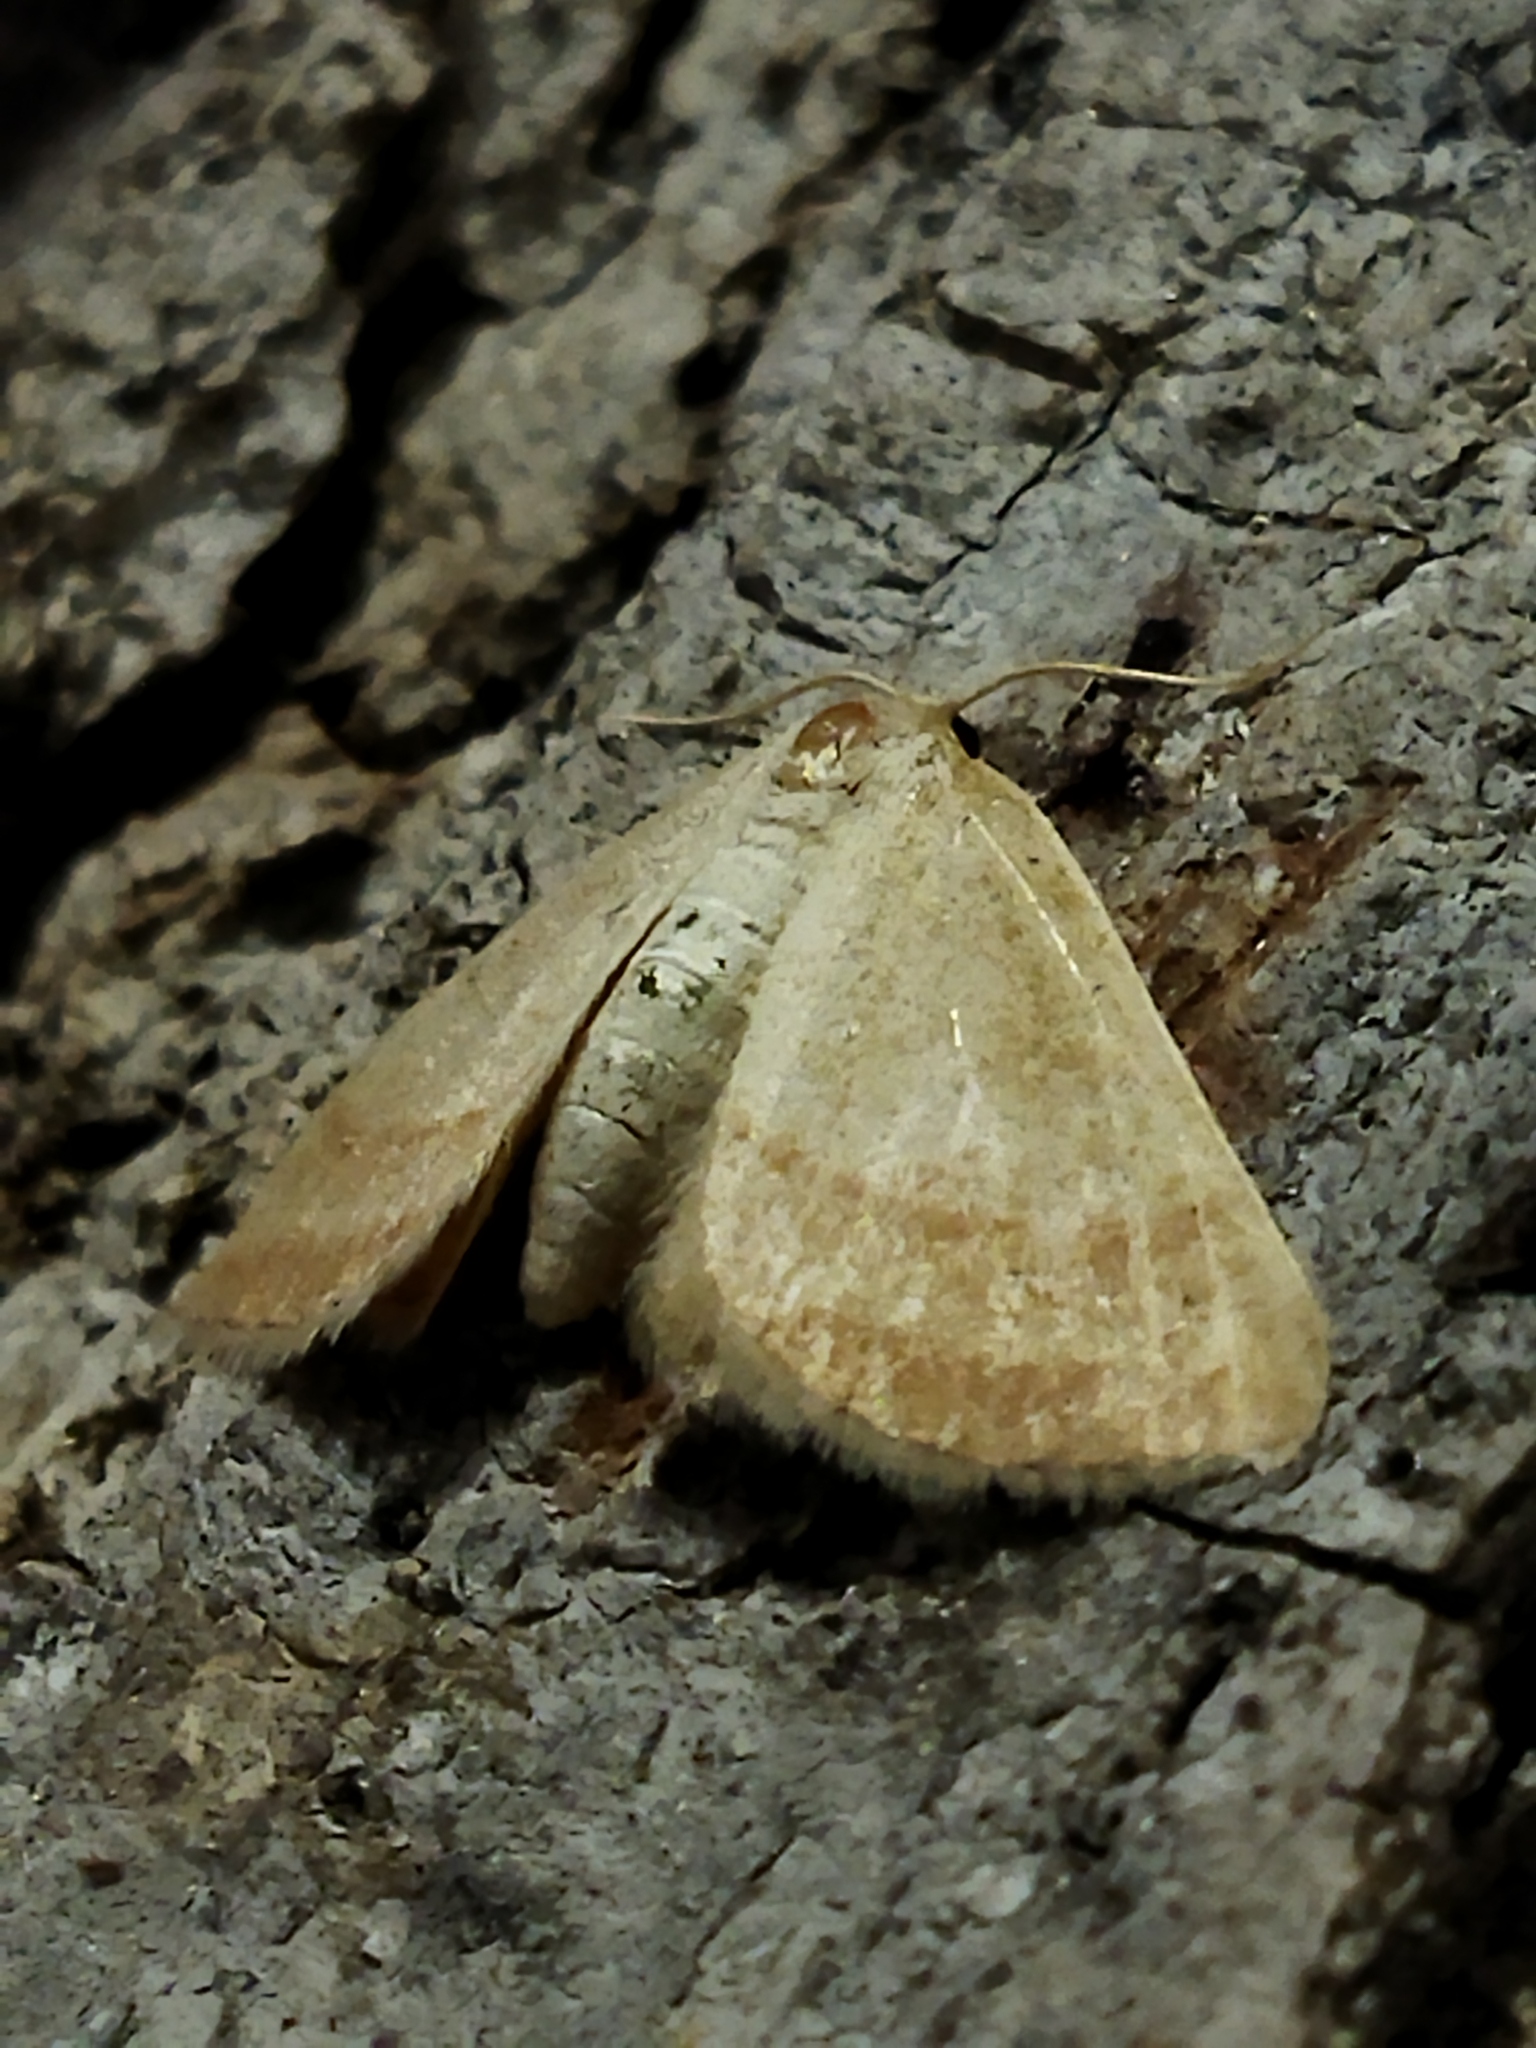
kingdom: Animalia
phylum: Arthropoda
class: Insecta
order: Lepidoptera
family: Geometridae
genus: Aplasta
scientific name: Aplasta ononaria
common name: Rest harrow
